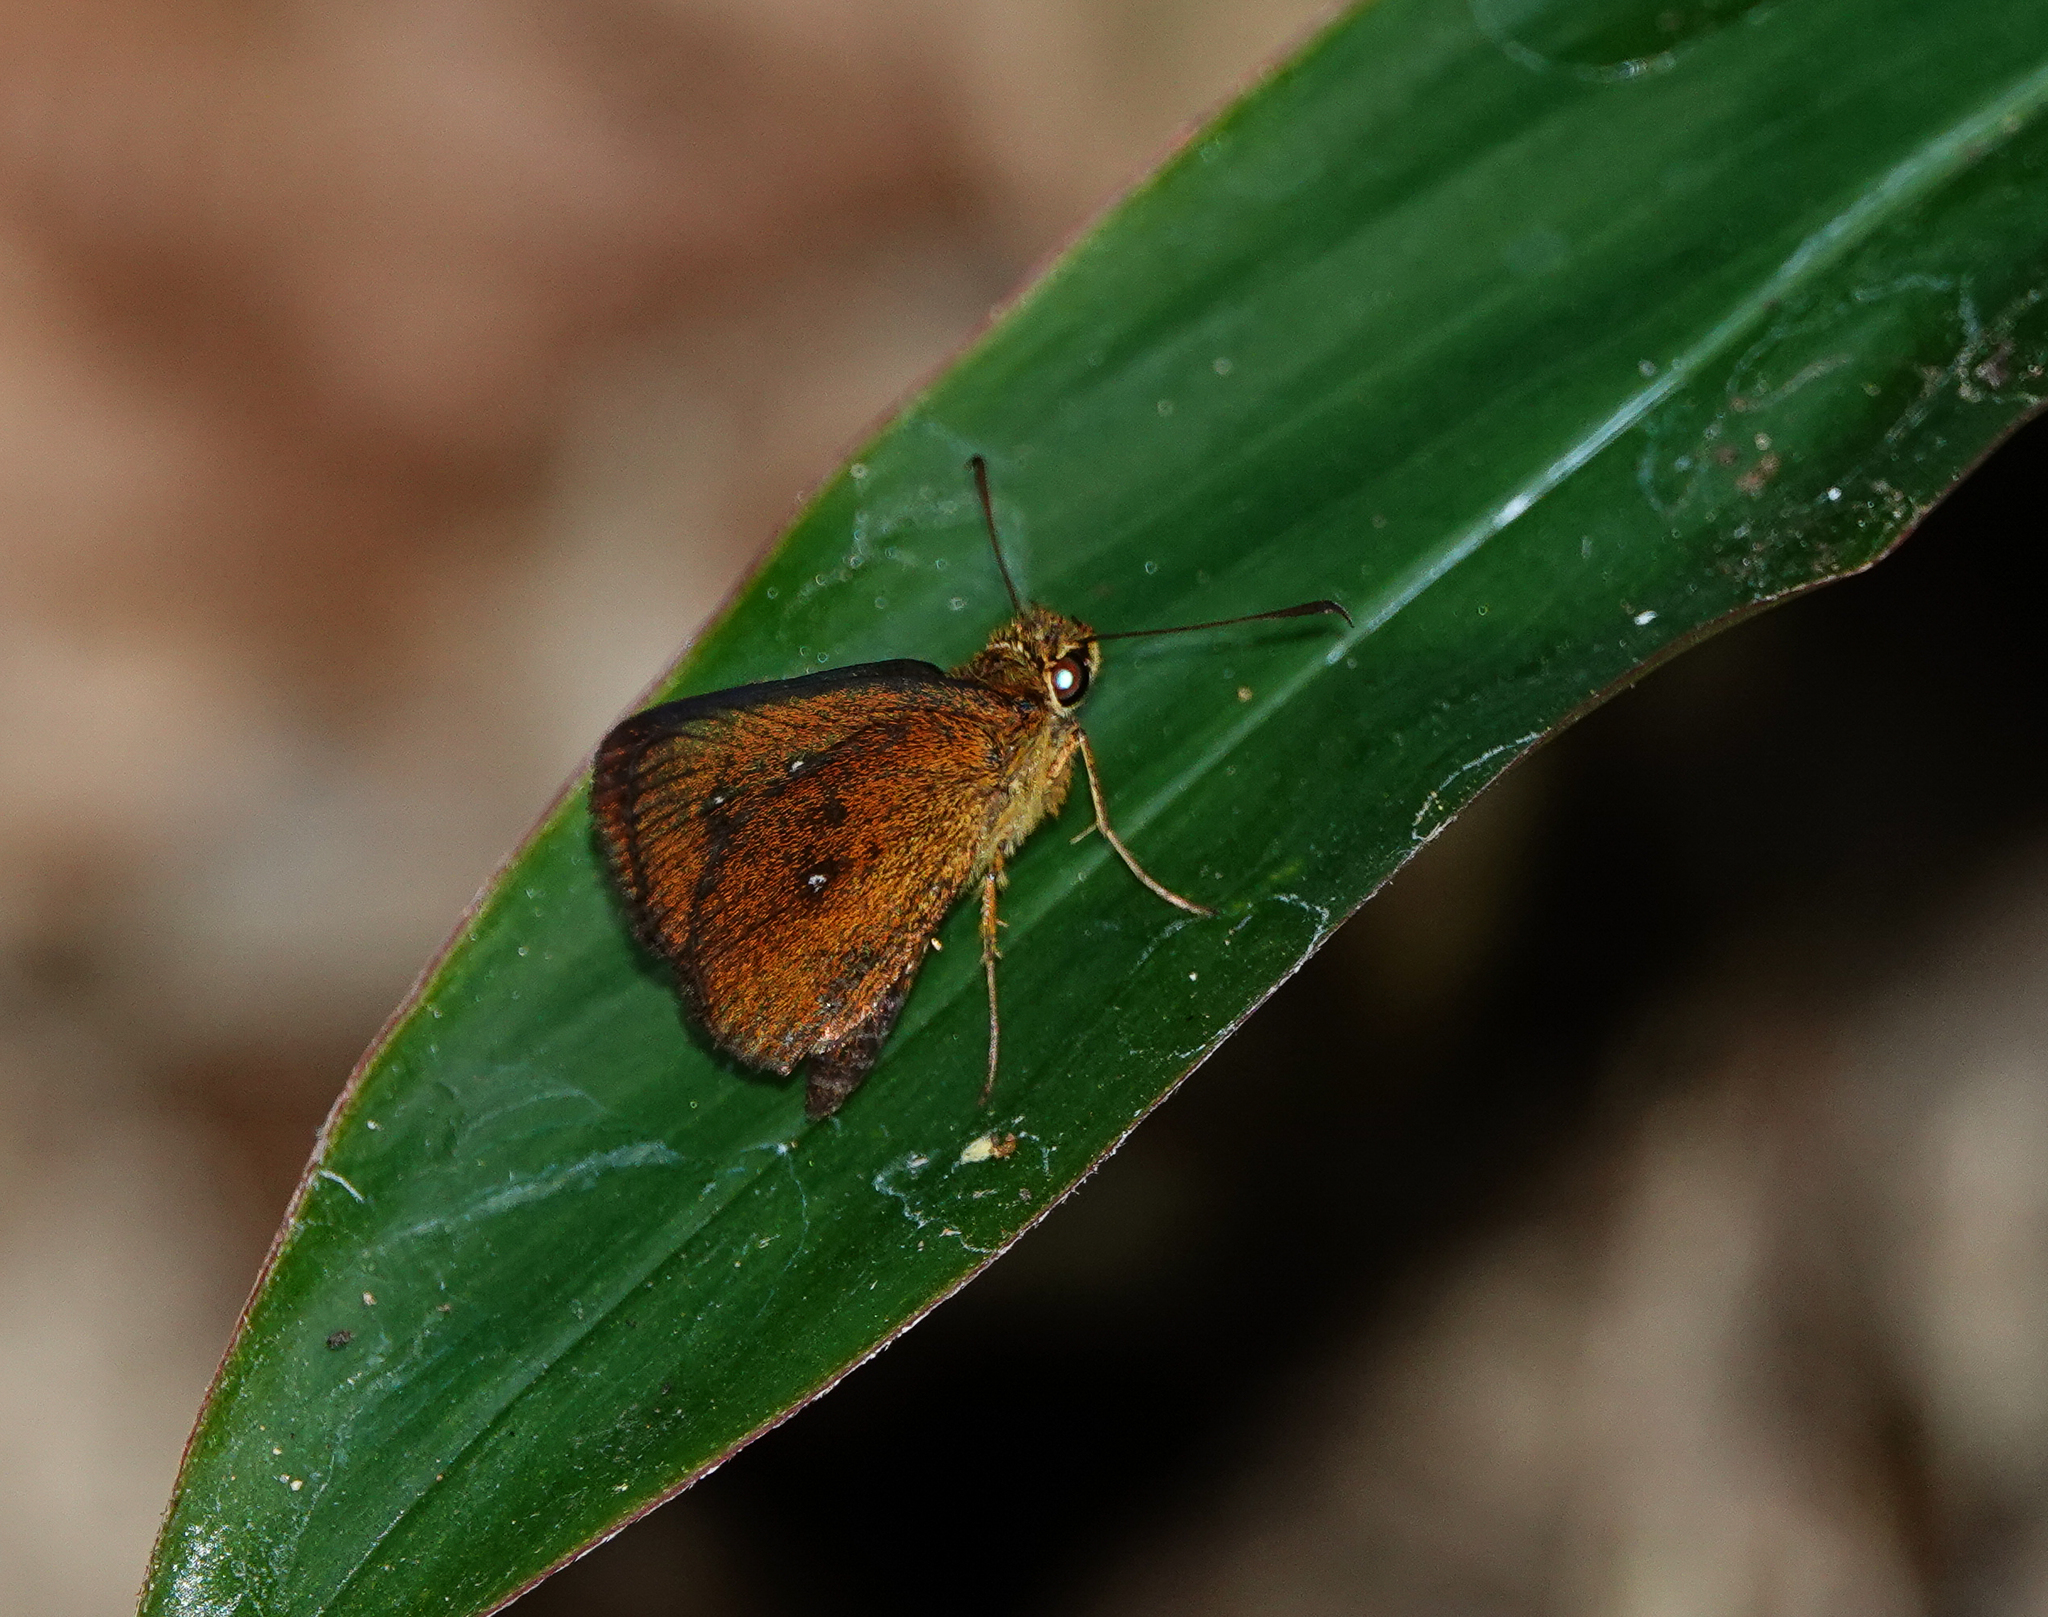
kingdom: Animalia
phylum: Arthropoda
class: Insecta
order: Lepidoptera
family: Hesperiidae
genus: Iambrix
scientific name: Iambrix salsala
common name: Chestnut bob
